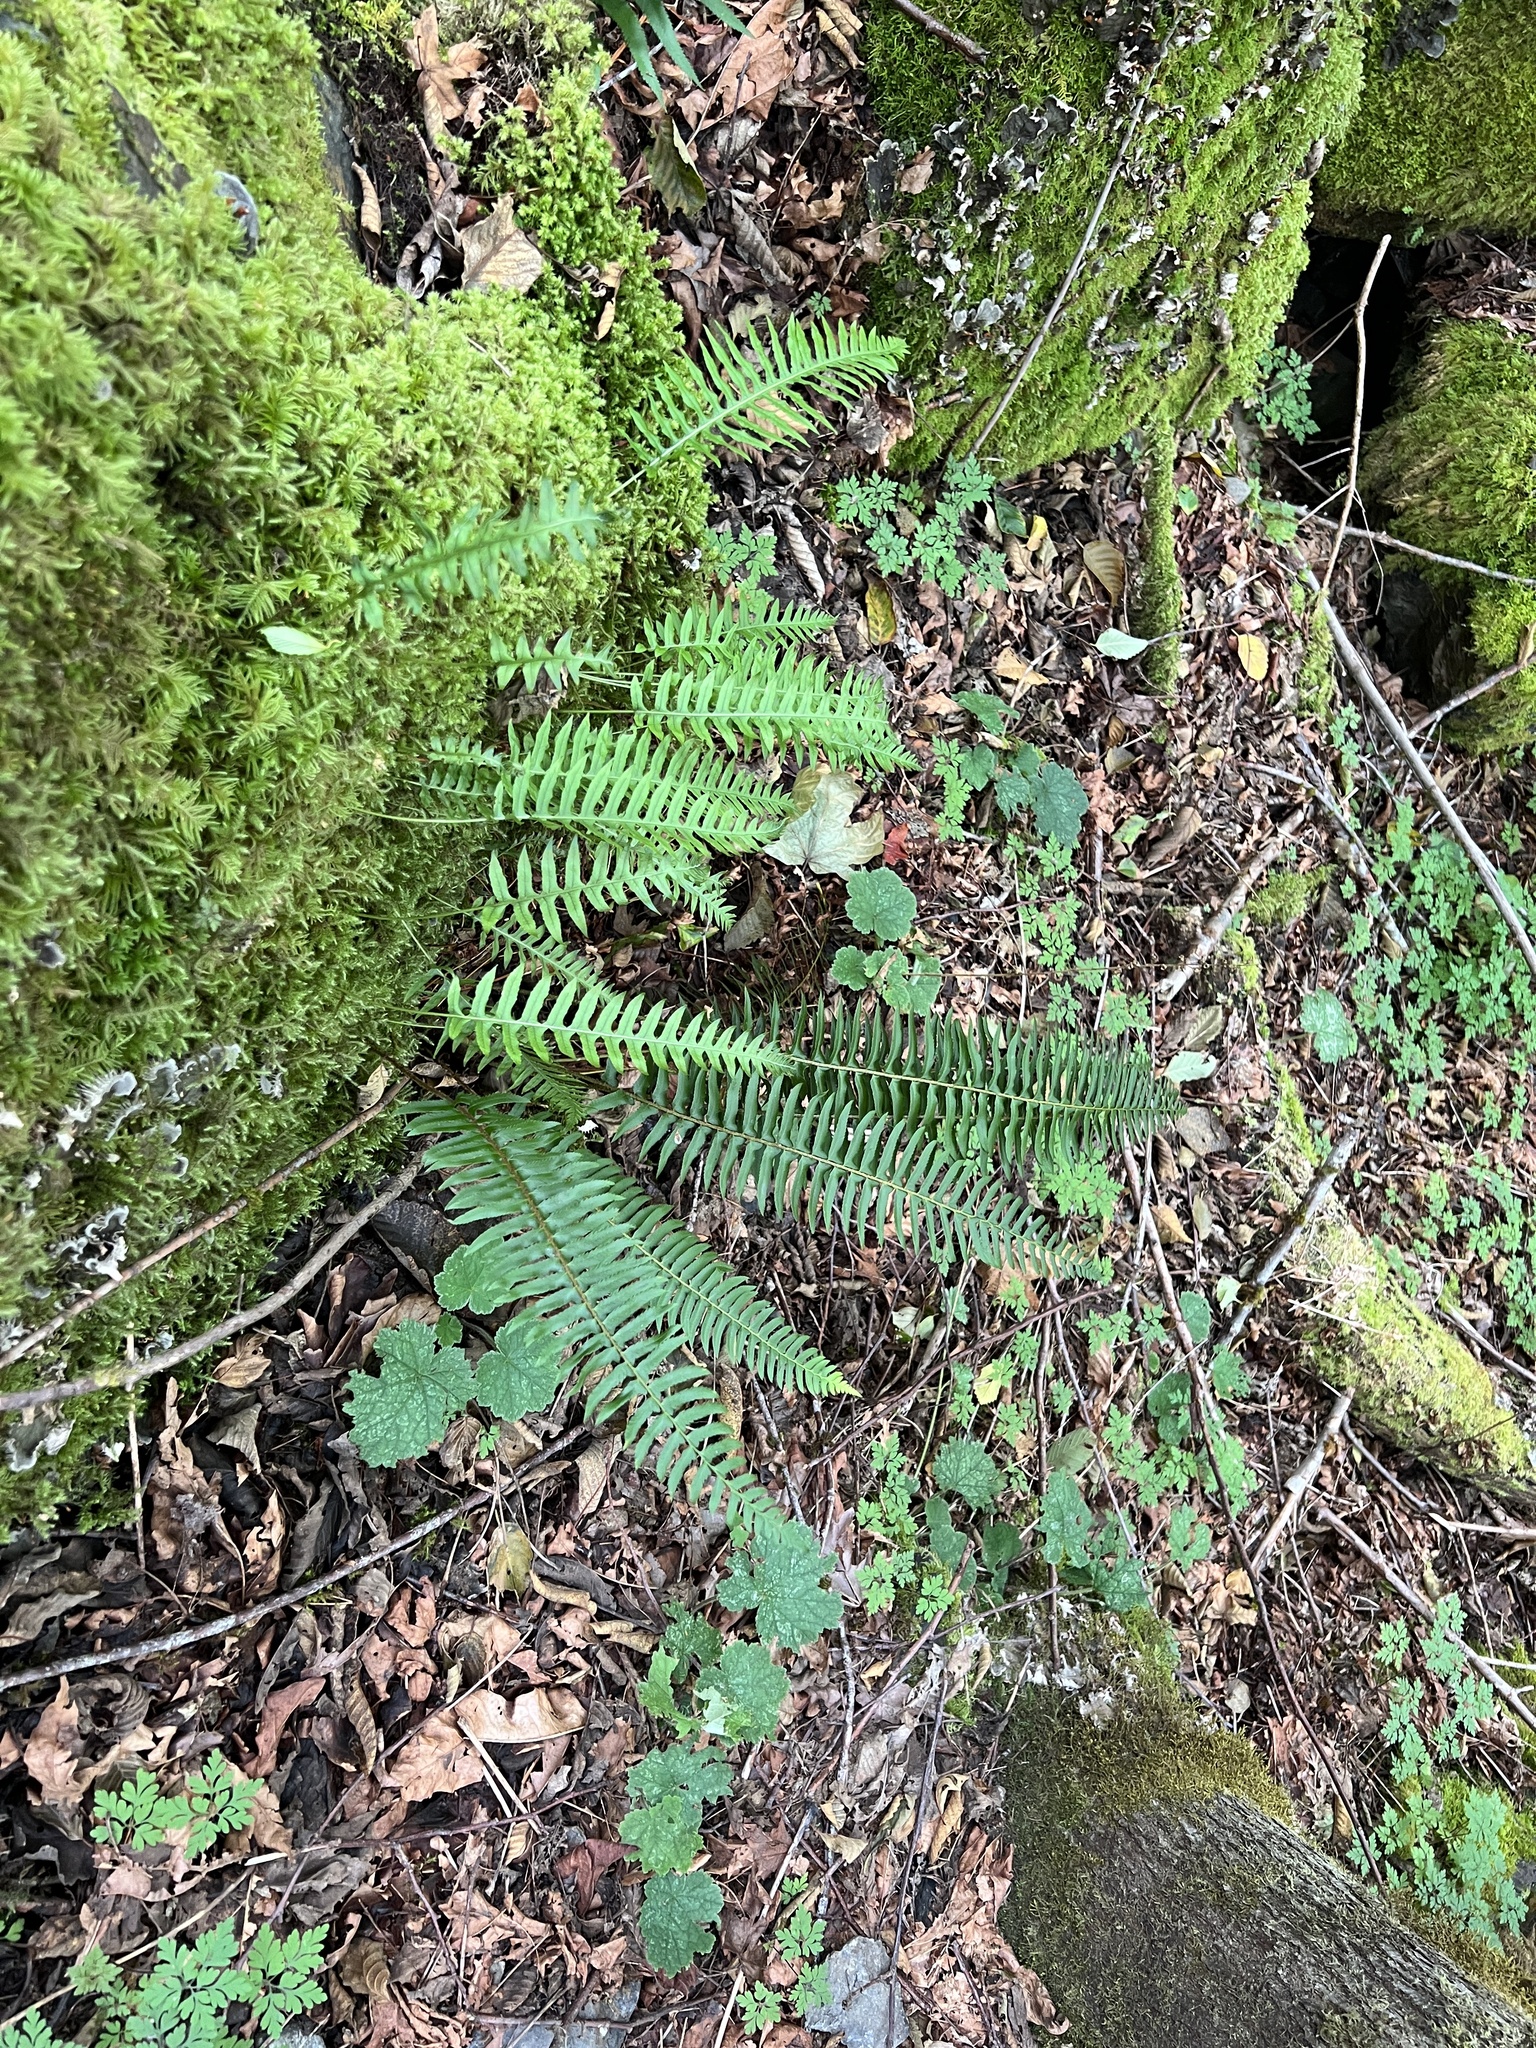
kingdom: Plantae
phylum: Tracheophyta
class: Polypodiopsida
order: Polypodiales
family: Polypodiaceae
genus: Polypodium
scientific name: Polypodium glycyrrhiza
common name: Licorice fern
